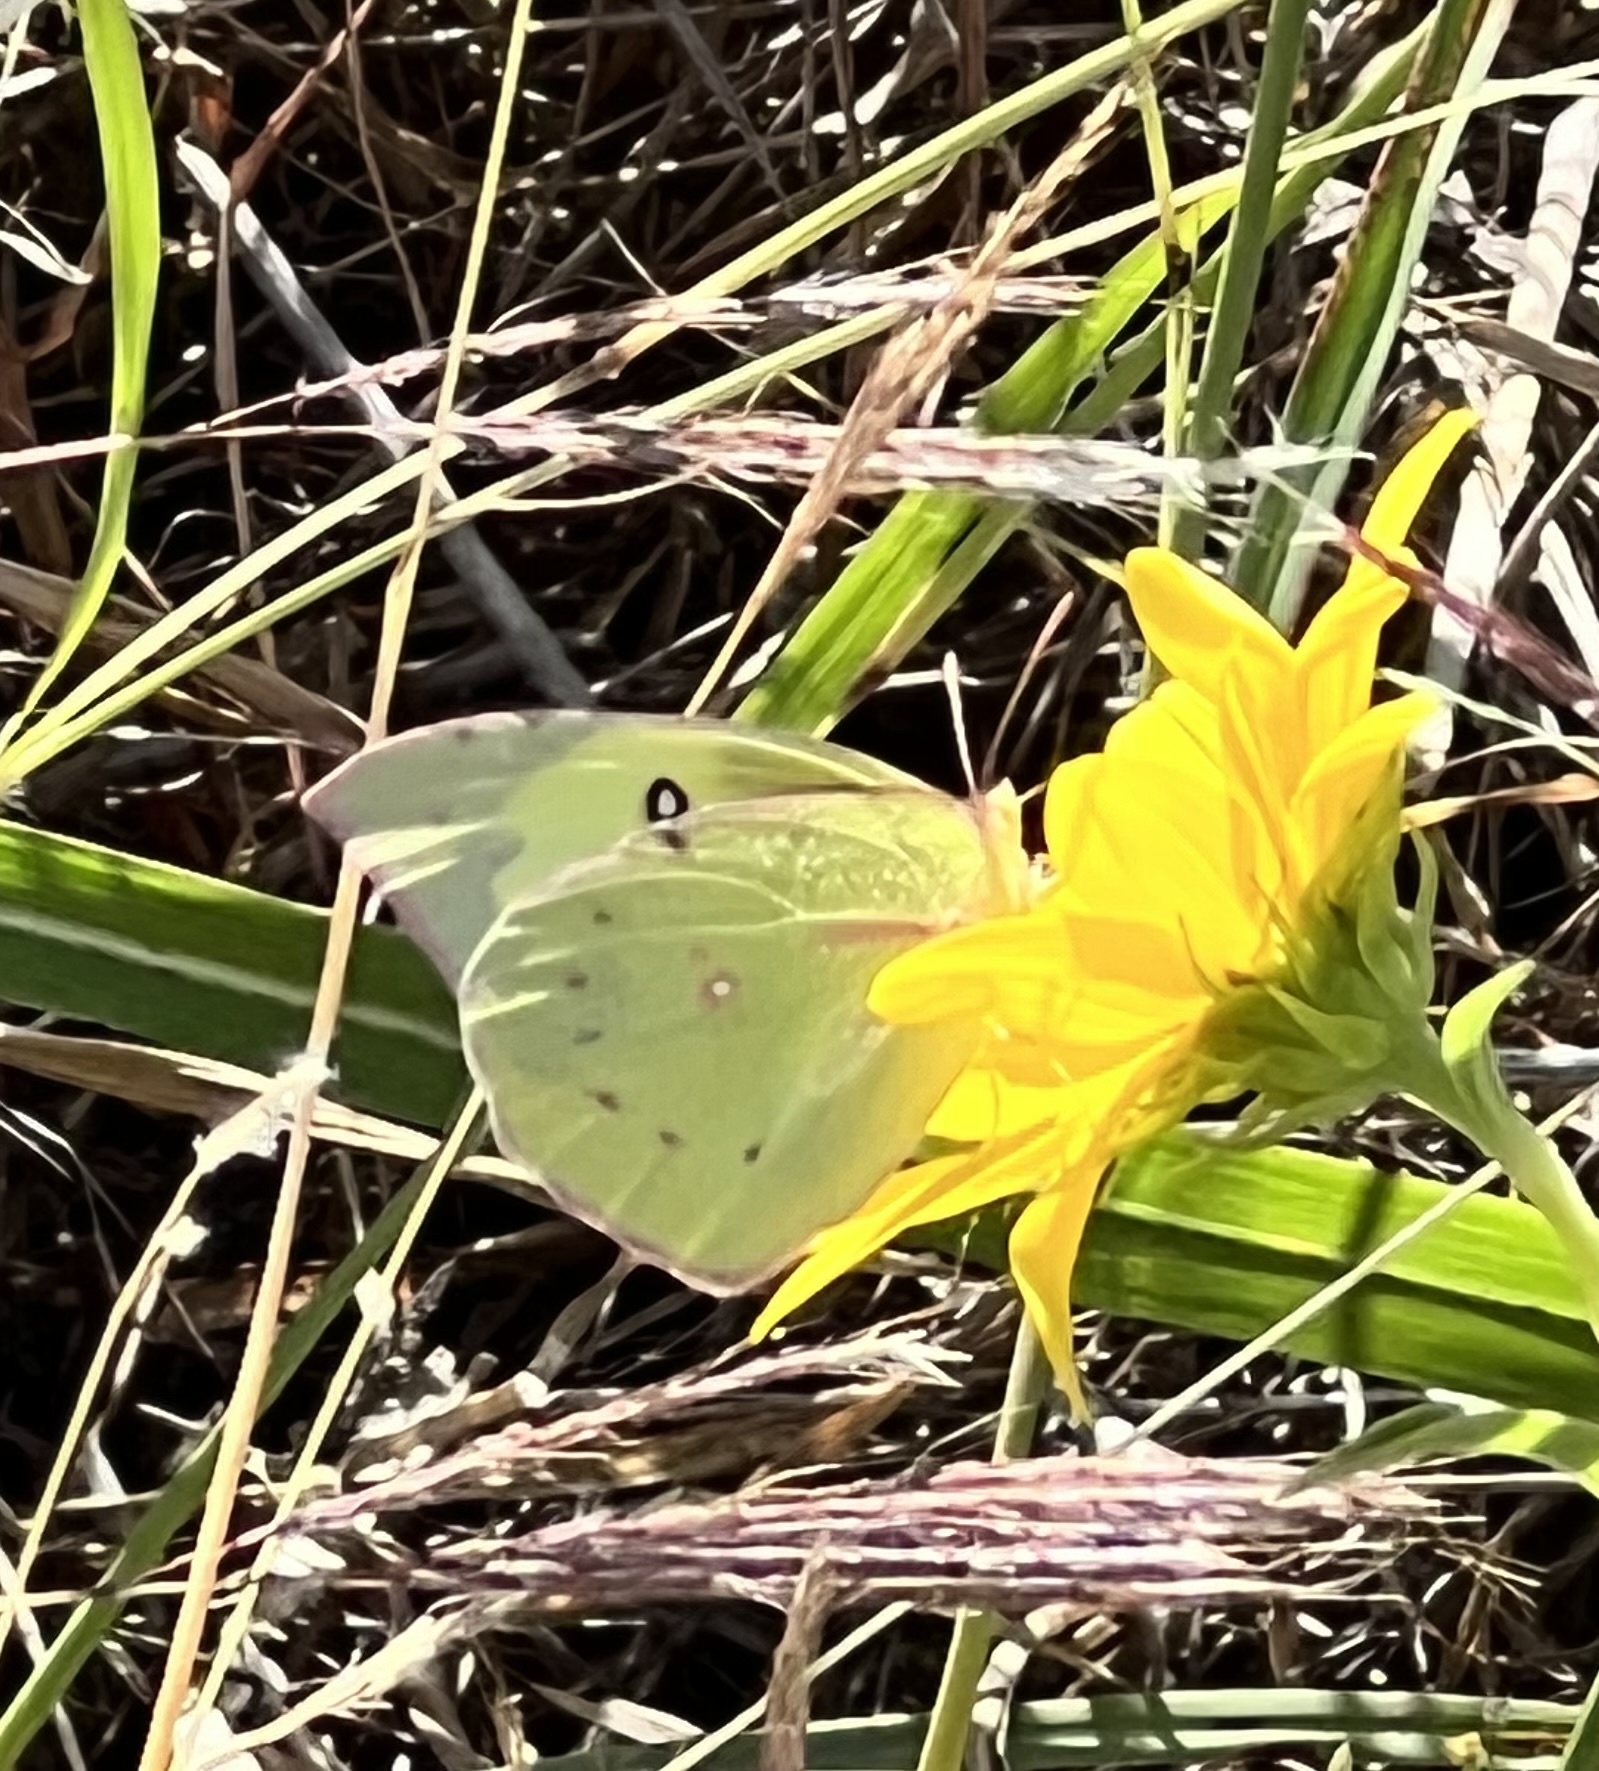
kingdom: Animalia
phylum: Arthropoda
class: Insecta
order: Lepidoptera
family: Pieridae
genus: Zerene
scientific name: Zerene cesonia
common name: Southern dogface
